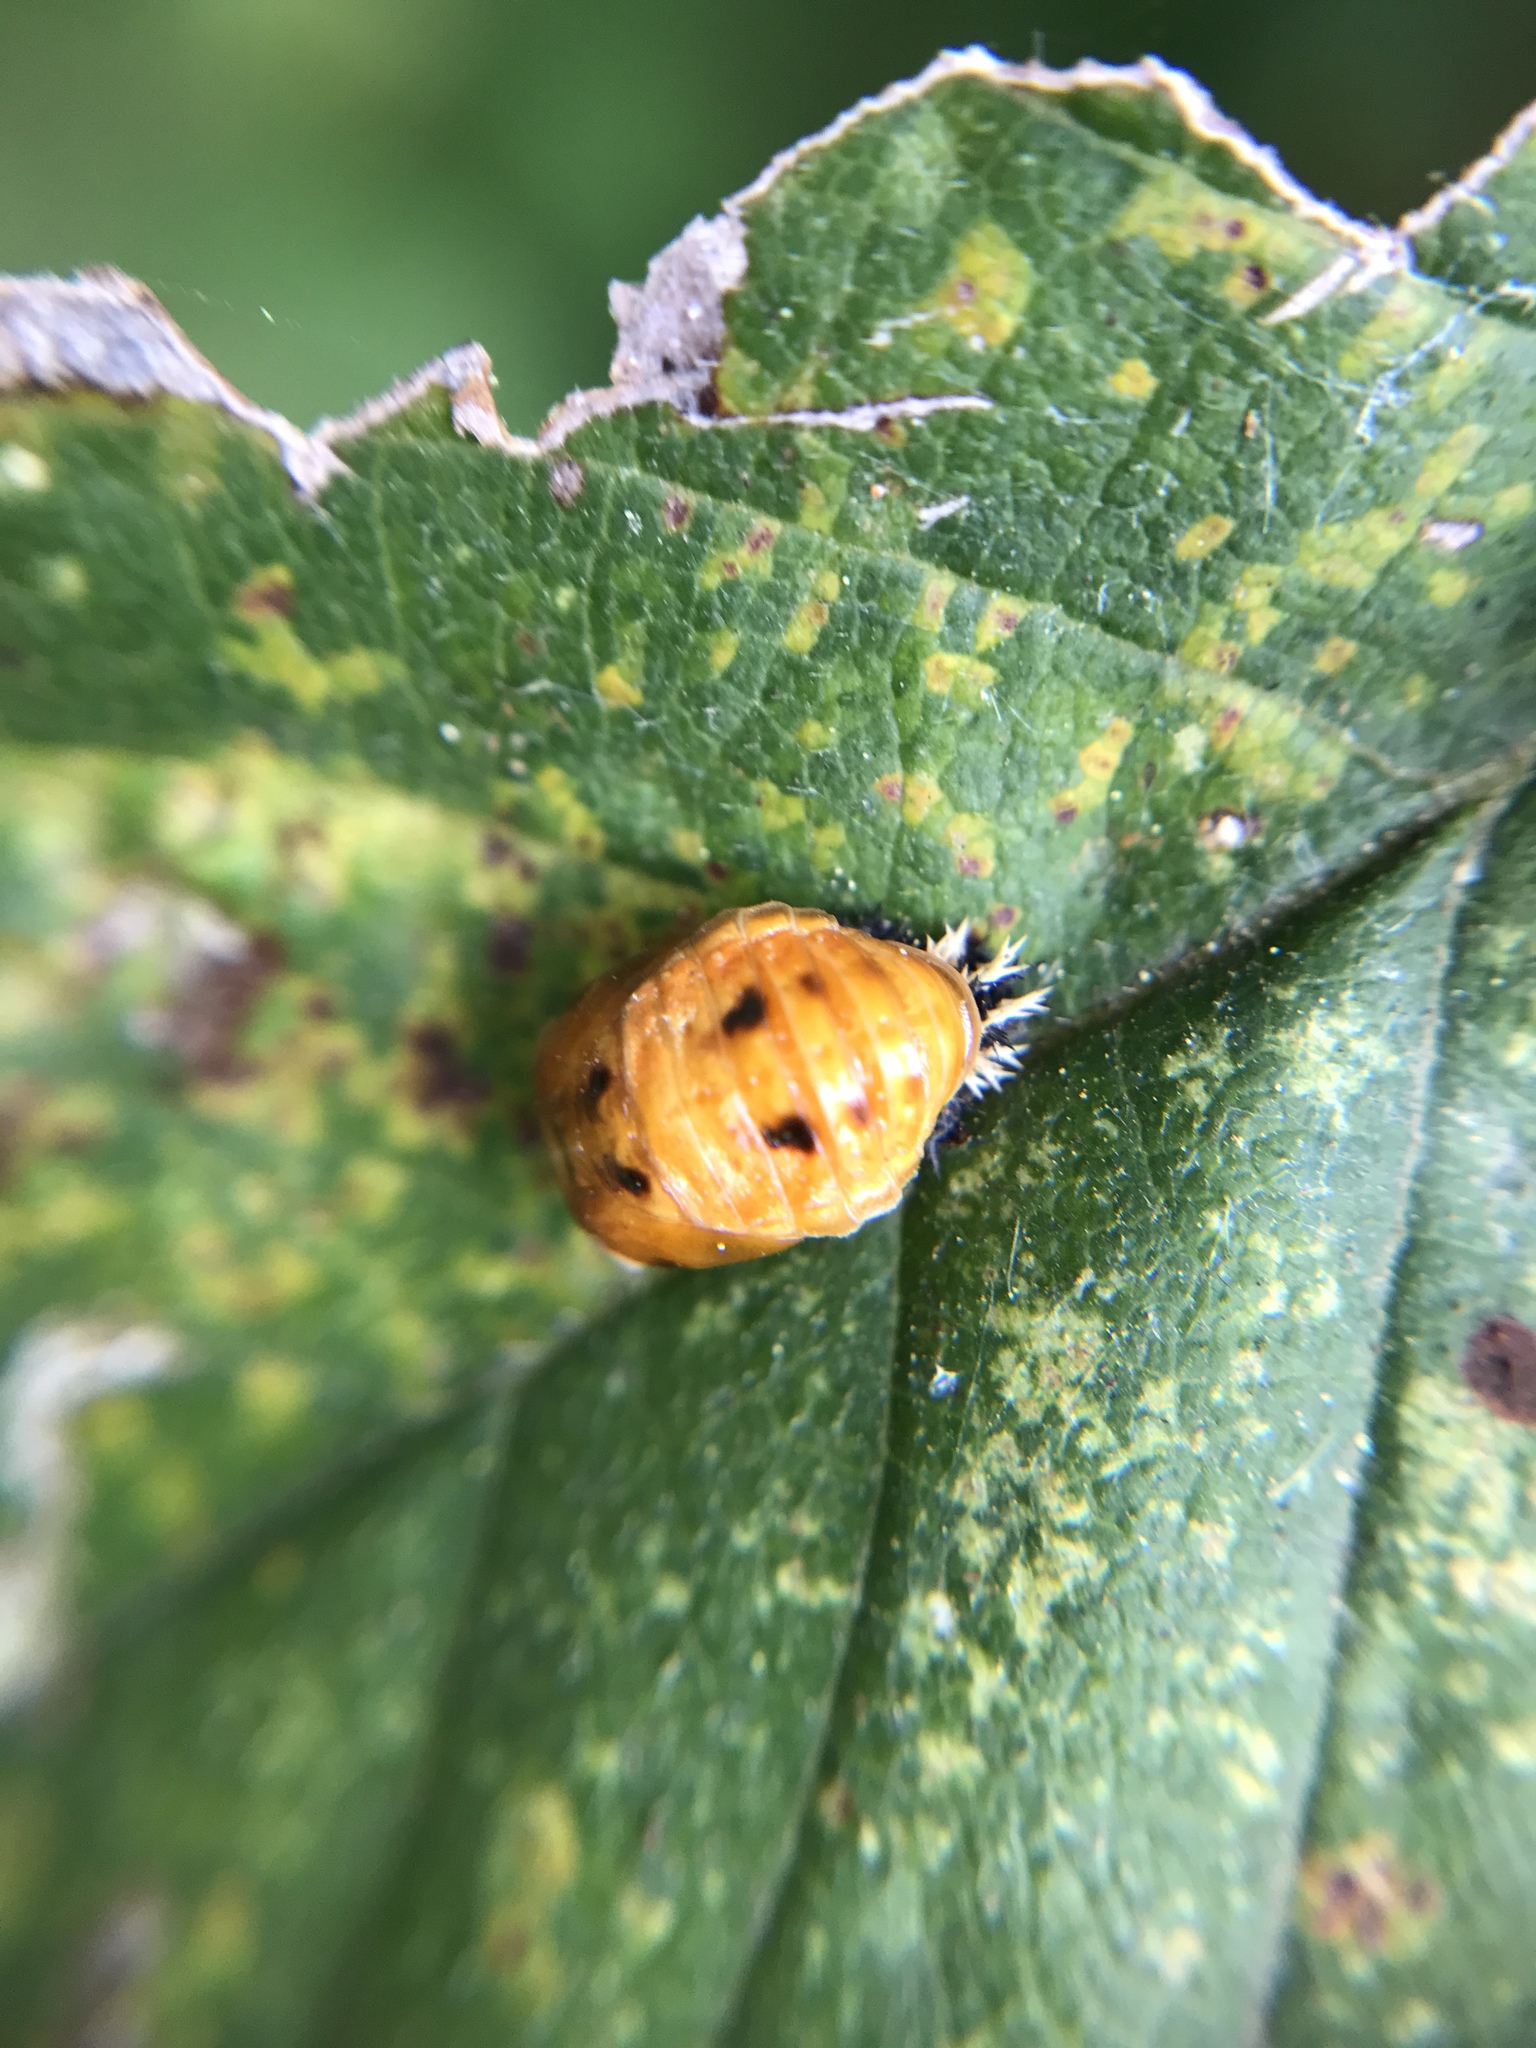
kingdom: Animalia
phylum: Arthropoda
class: Insecta
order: Coleoptera
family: Coccinellidae
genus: Harmonia
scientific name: Harmonia axyridis
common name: Harlequin ladybird
